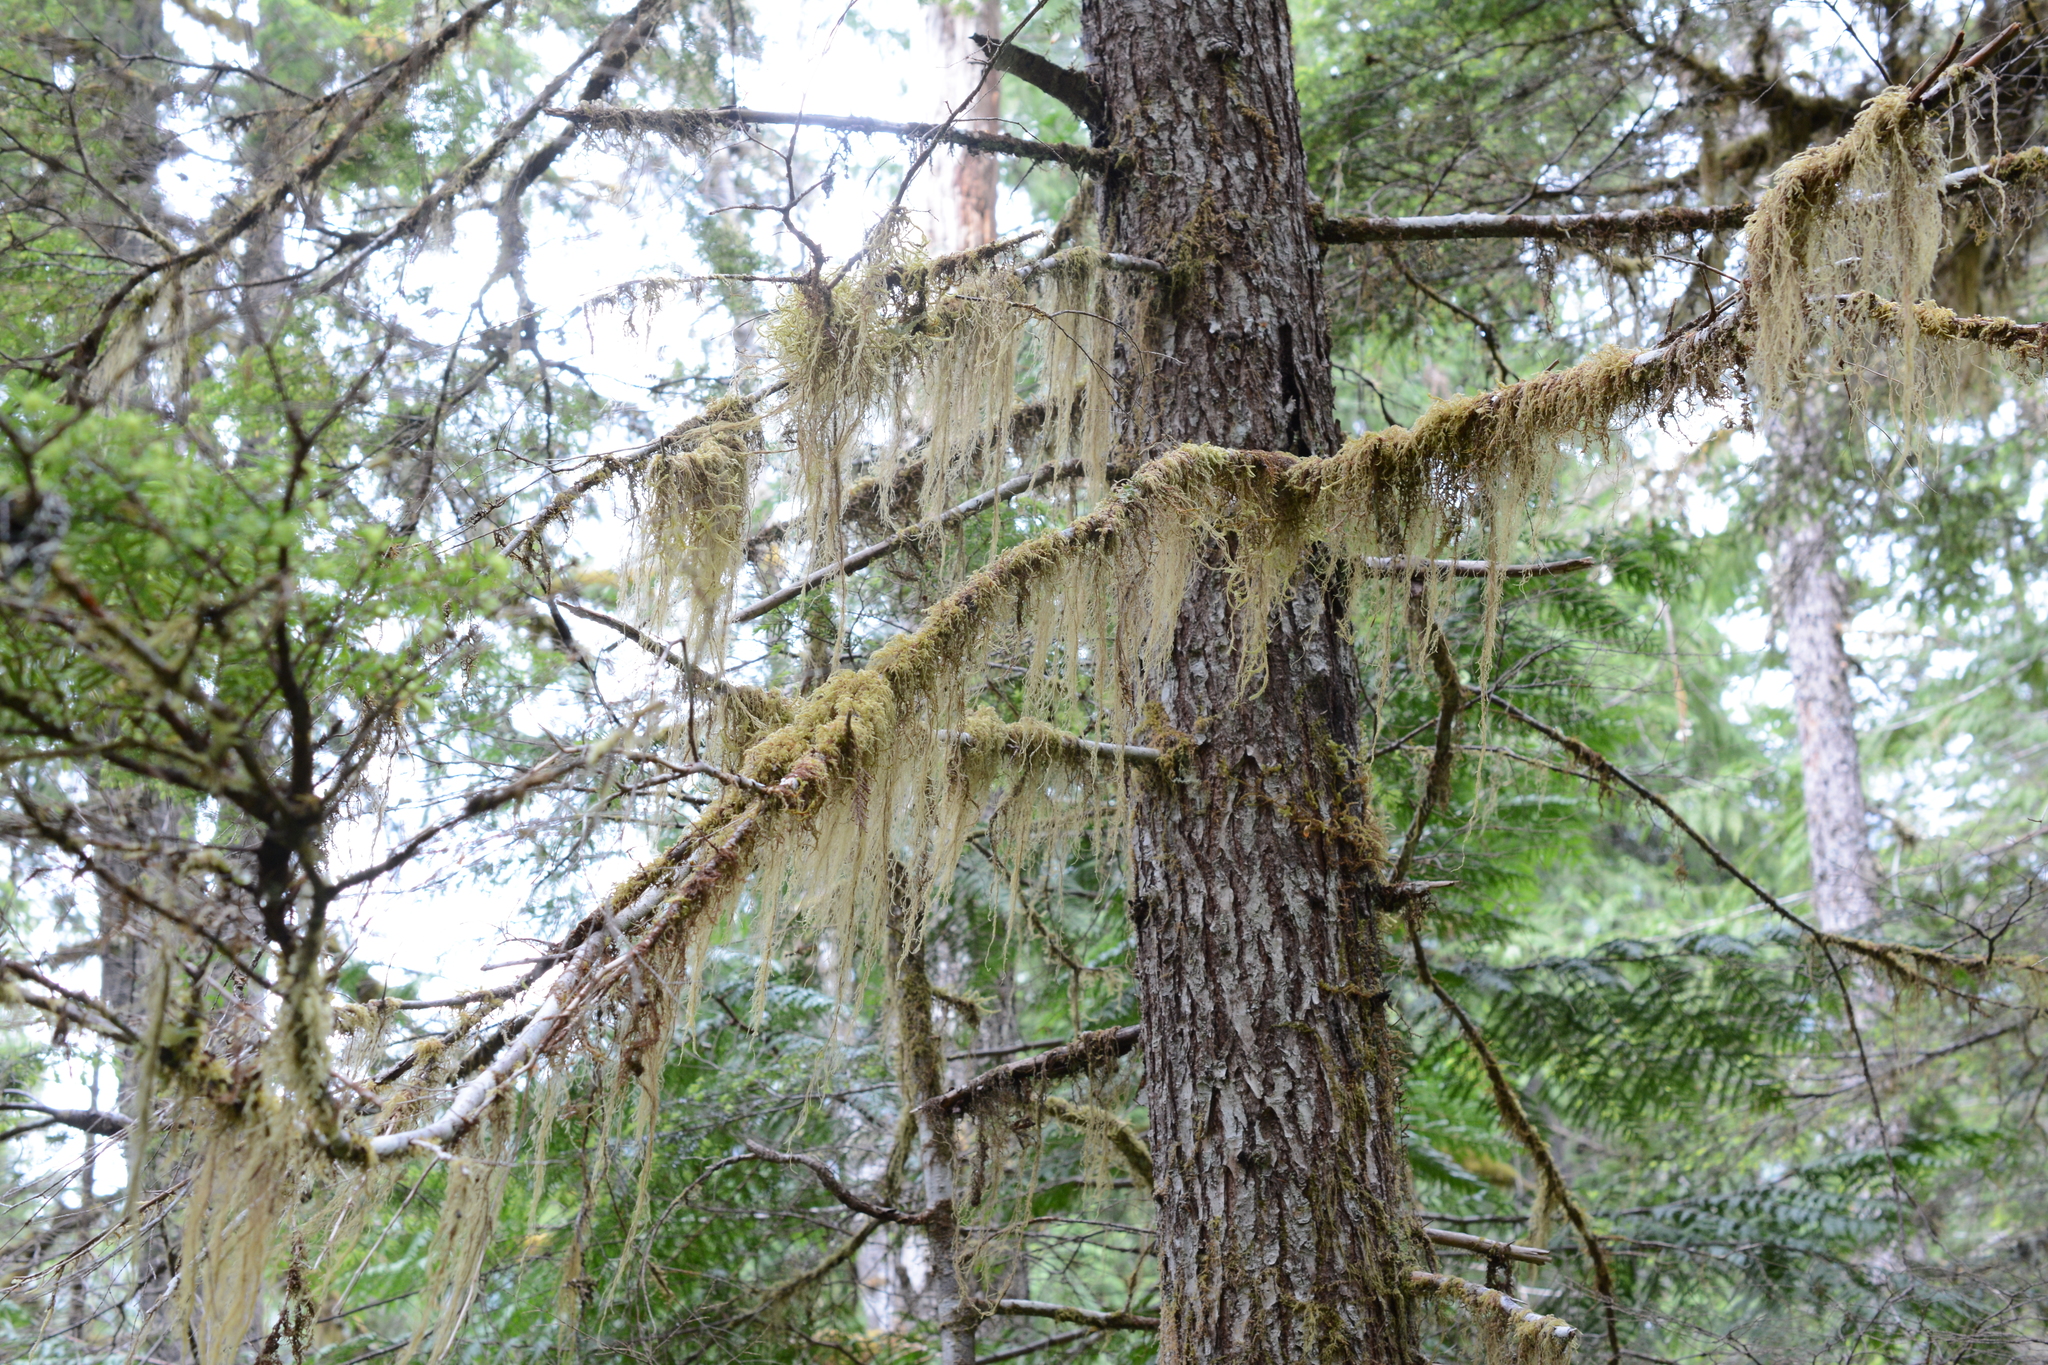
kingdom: Plantae
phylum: Bryophyta
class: Bryopsida
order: Hypnales
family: Lembophyllaceae
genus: Pseudisothecium
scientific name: Pseudisothecium stoloniferum
